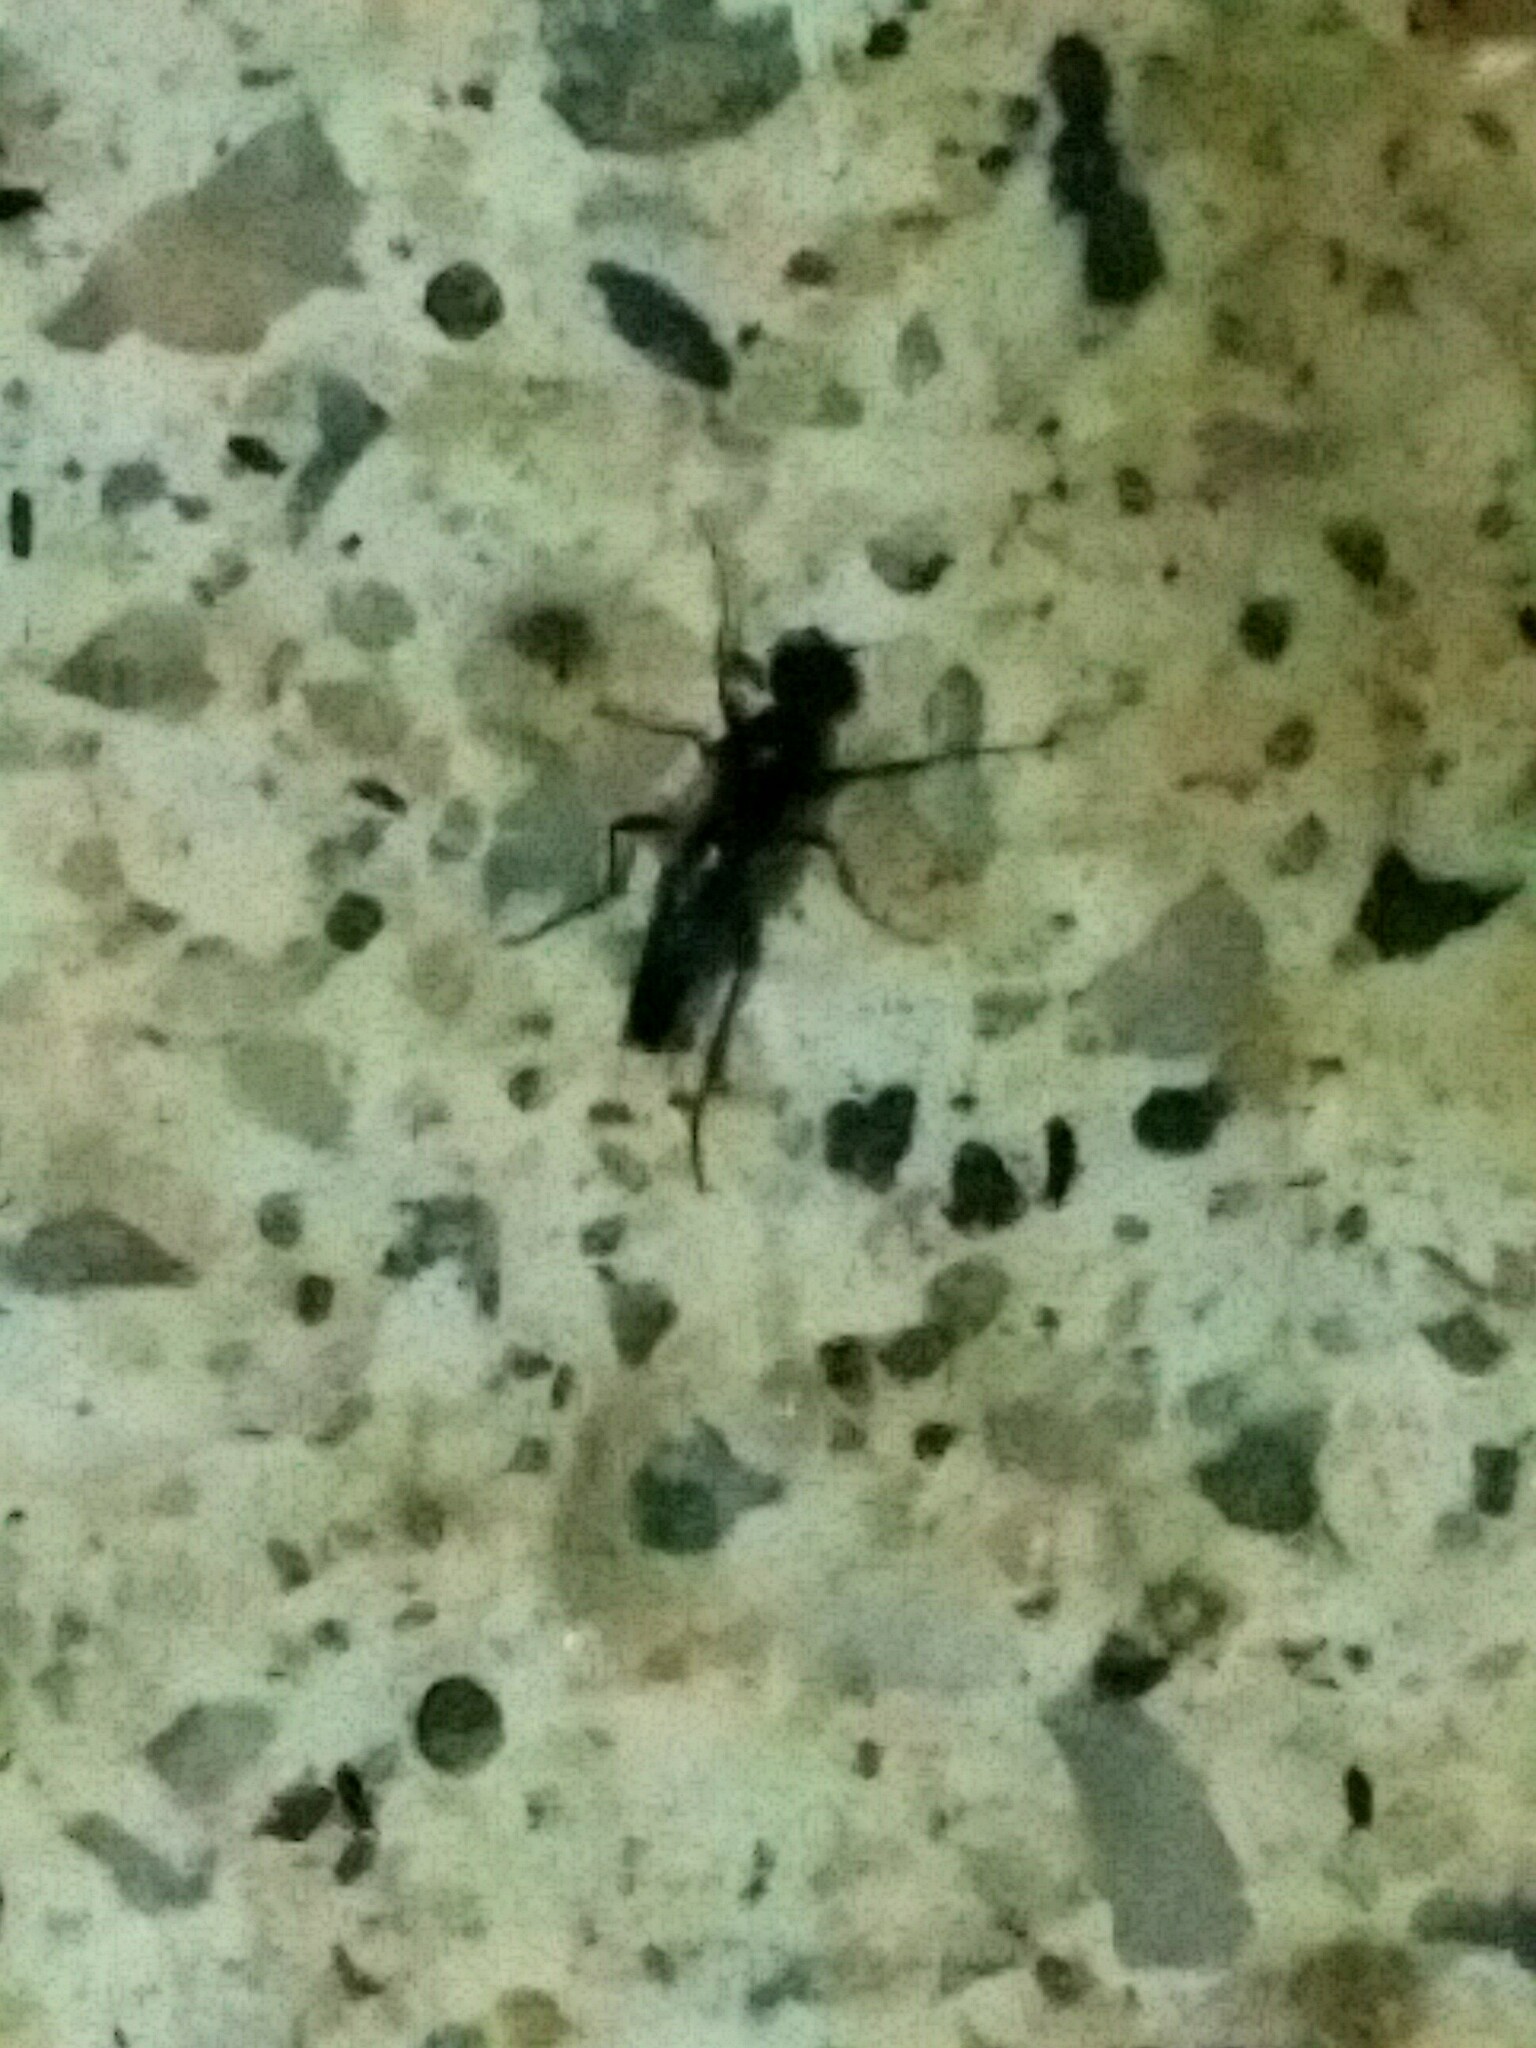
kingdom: Animalia
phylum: Arthropoda
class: Insecta
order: Diptera
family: Bibionidae
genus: Bibiodes
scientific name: Bibiodes halteralis
